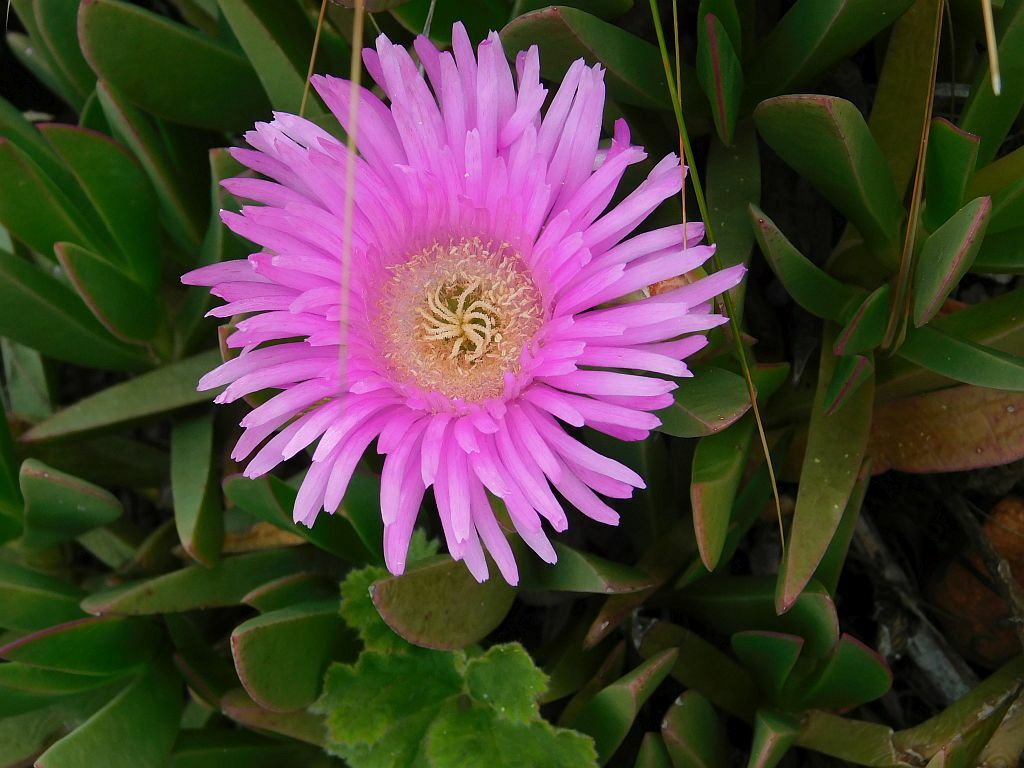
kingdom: Plantae
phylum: Tracheophyta
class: Magnoliopsida
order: Caryophyllales
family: Aizoaceae
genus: Carpobrotus
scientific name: Carpobrotus mellei
